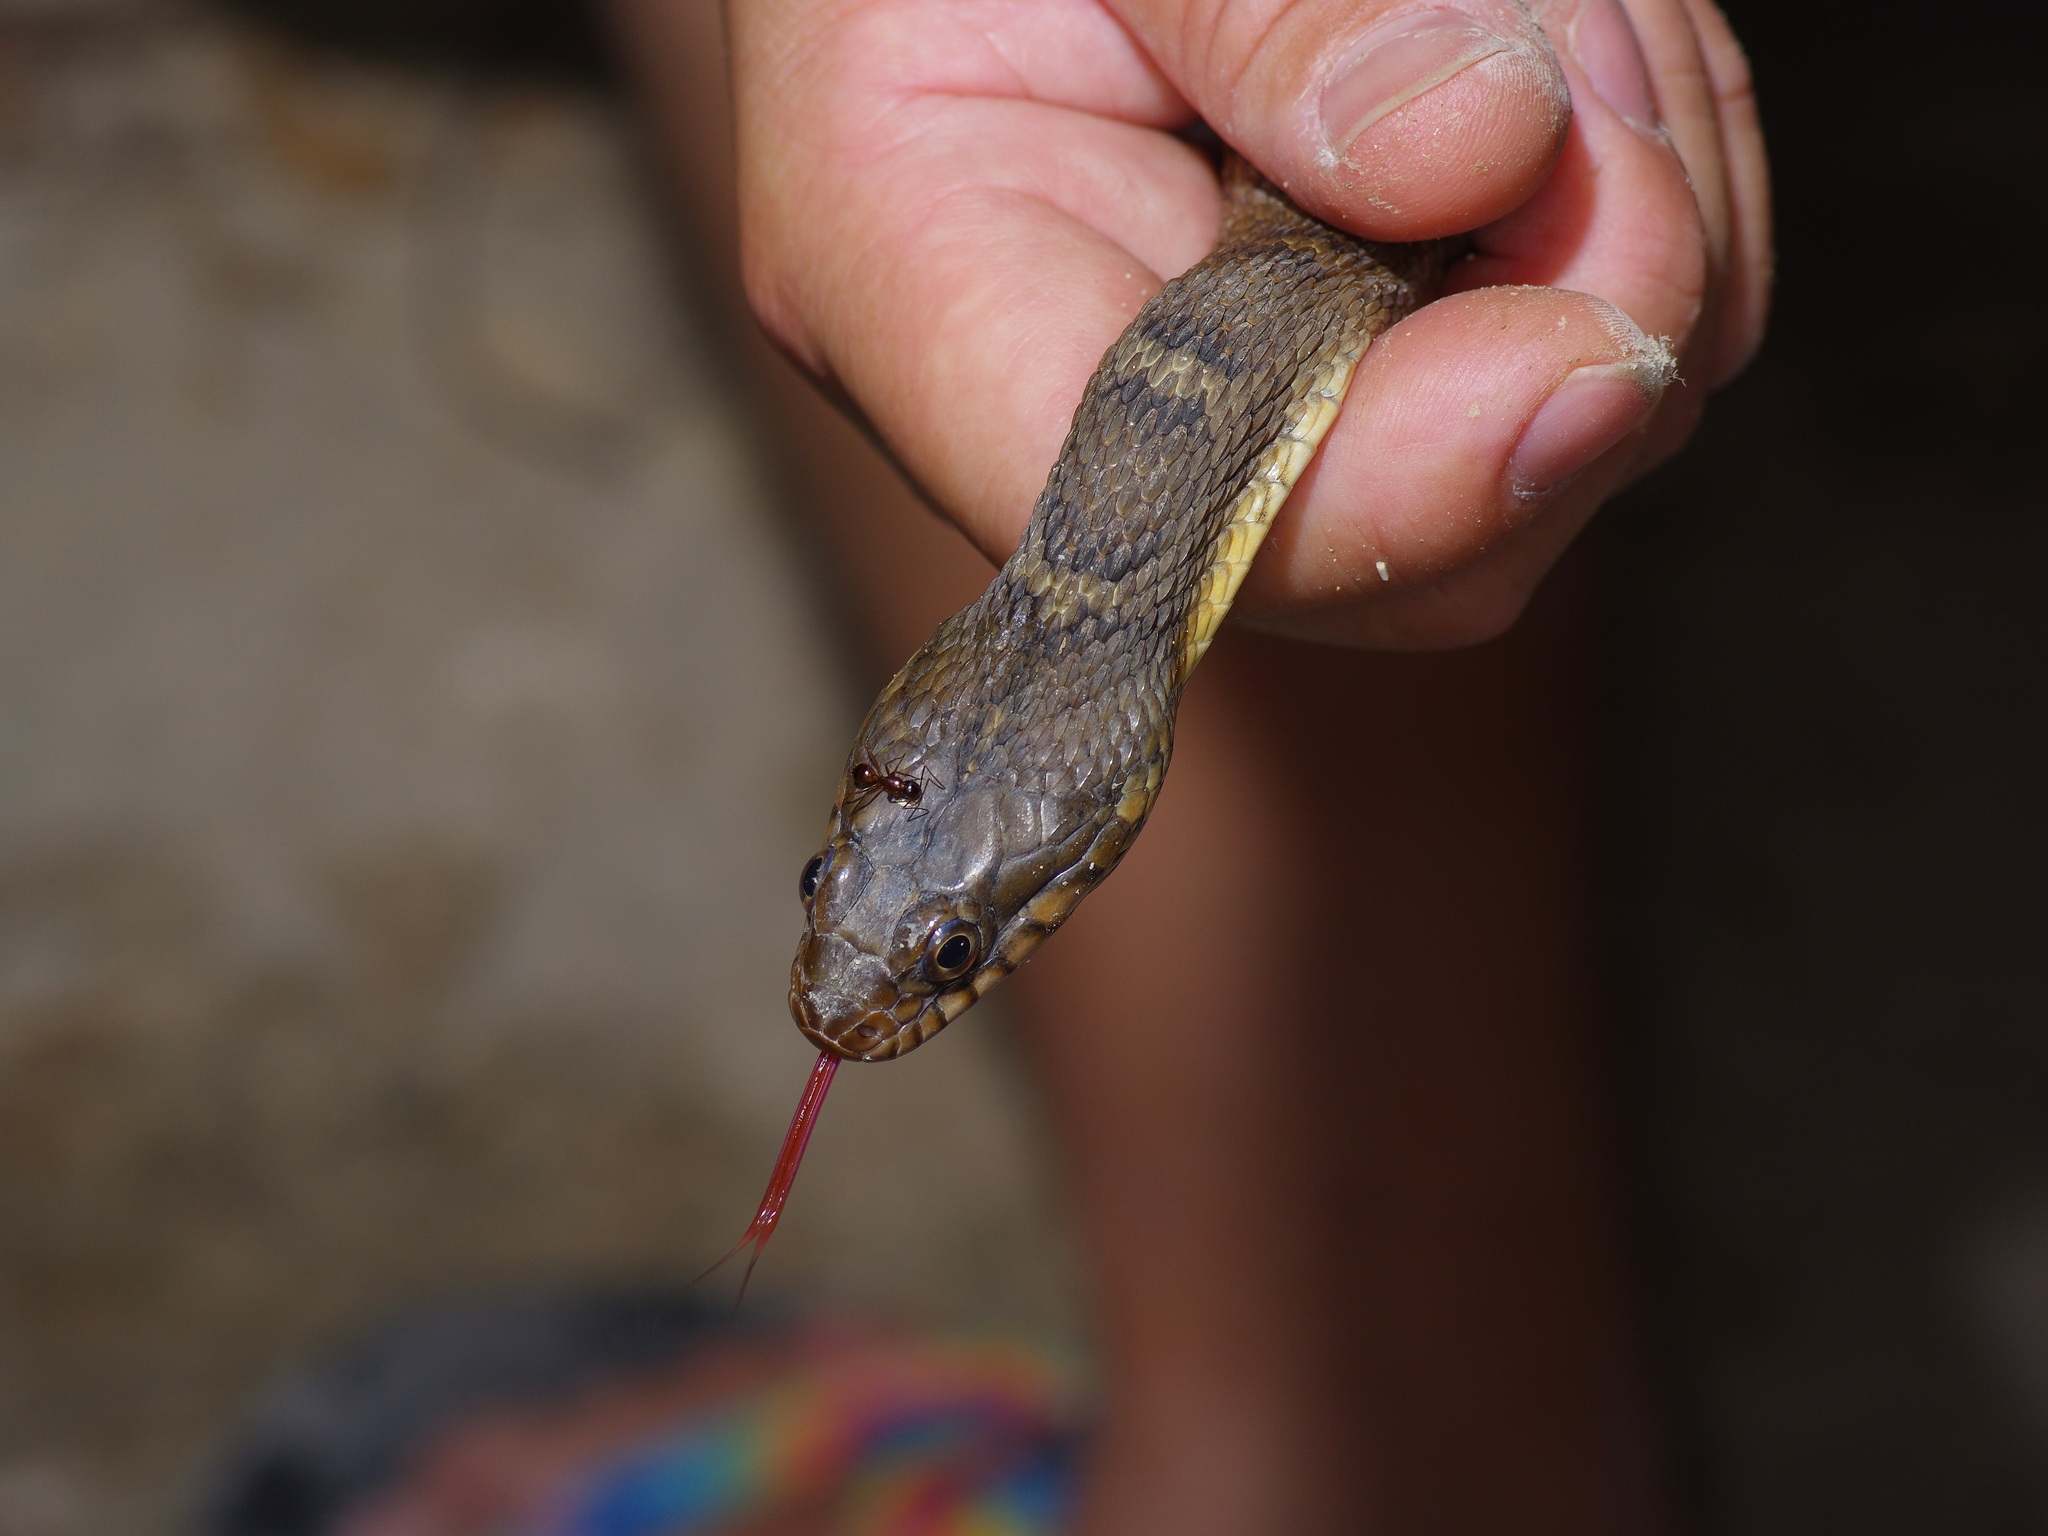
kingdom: Animalia
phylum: Chordata
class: Squamata
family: Colubridae
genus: Nerodia
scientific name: Nerodia erythrogaster
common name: Plainbelly water snake
